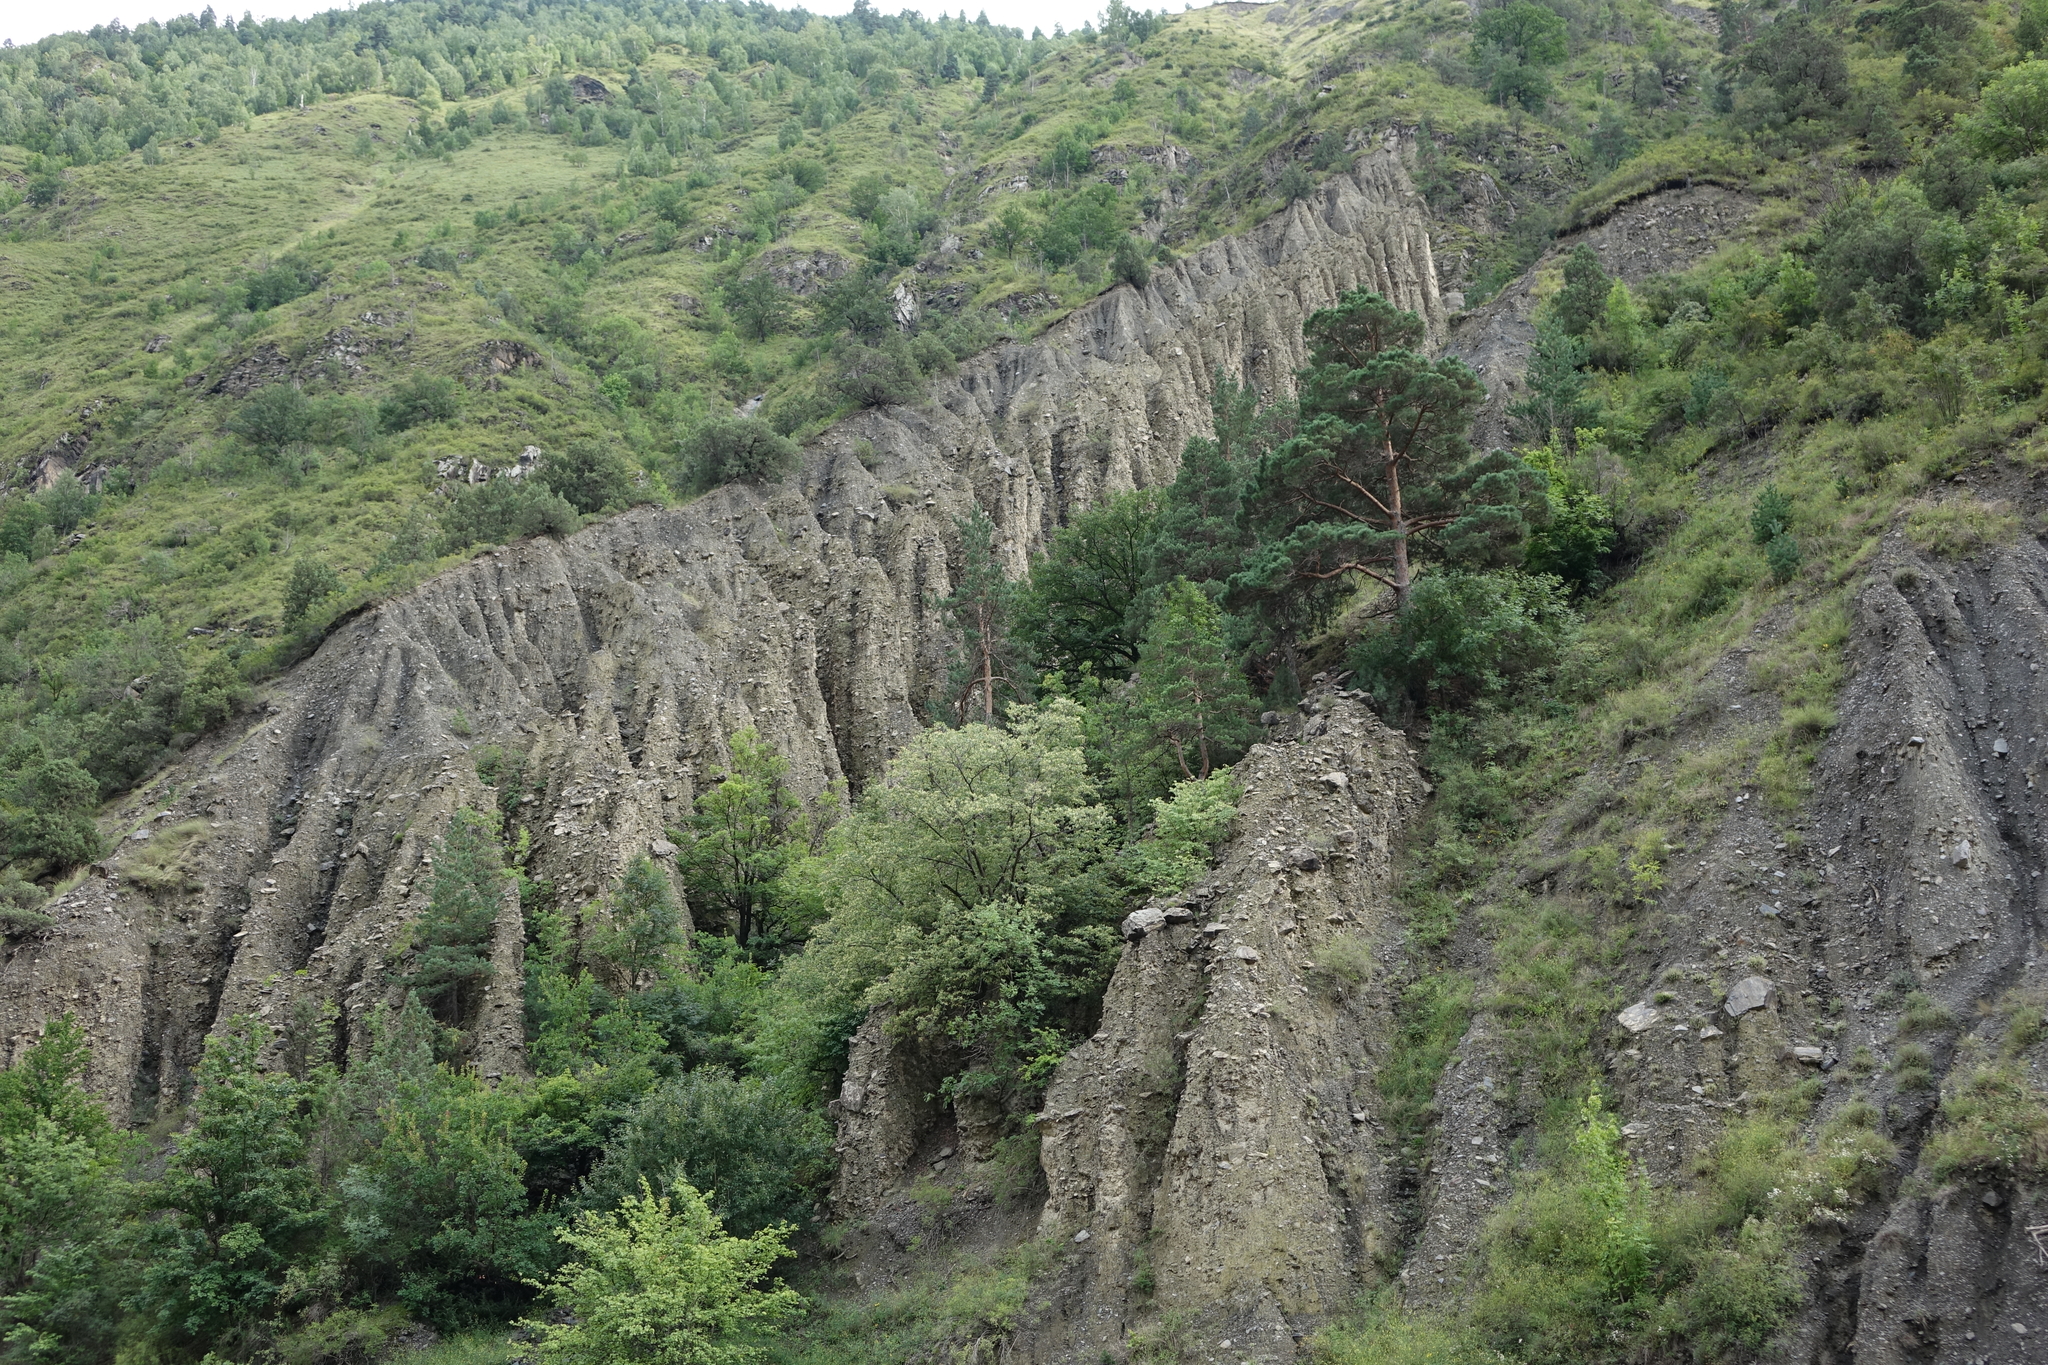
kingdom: Plantae
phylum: Tracheophyta
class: Pinopsida
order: Pinales
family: Pinaceae
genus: Pinus
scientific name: Pinus sylvestris
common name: Scots pine
